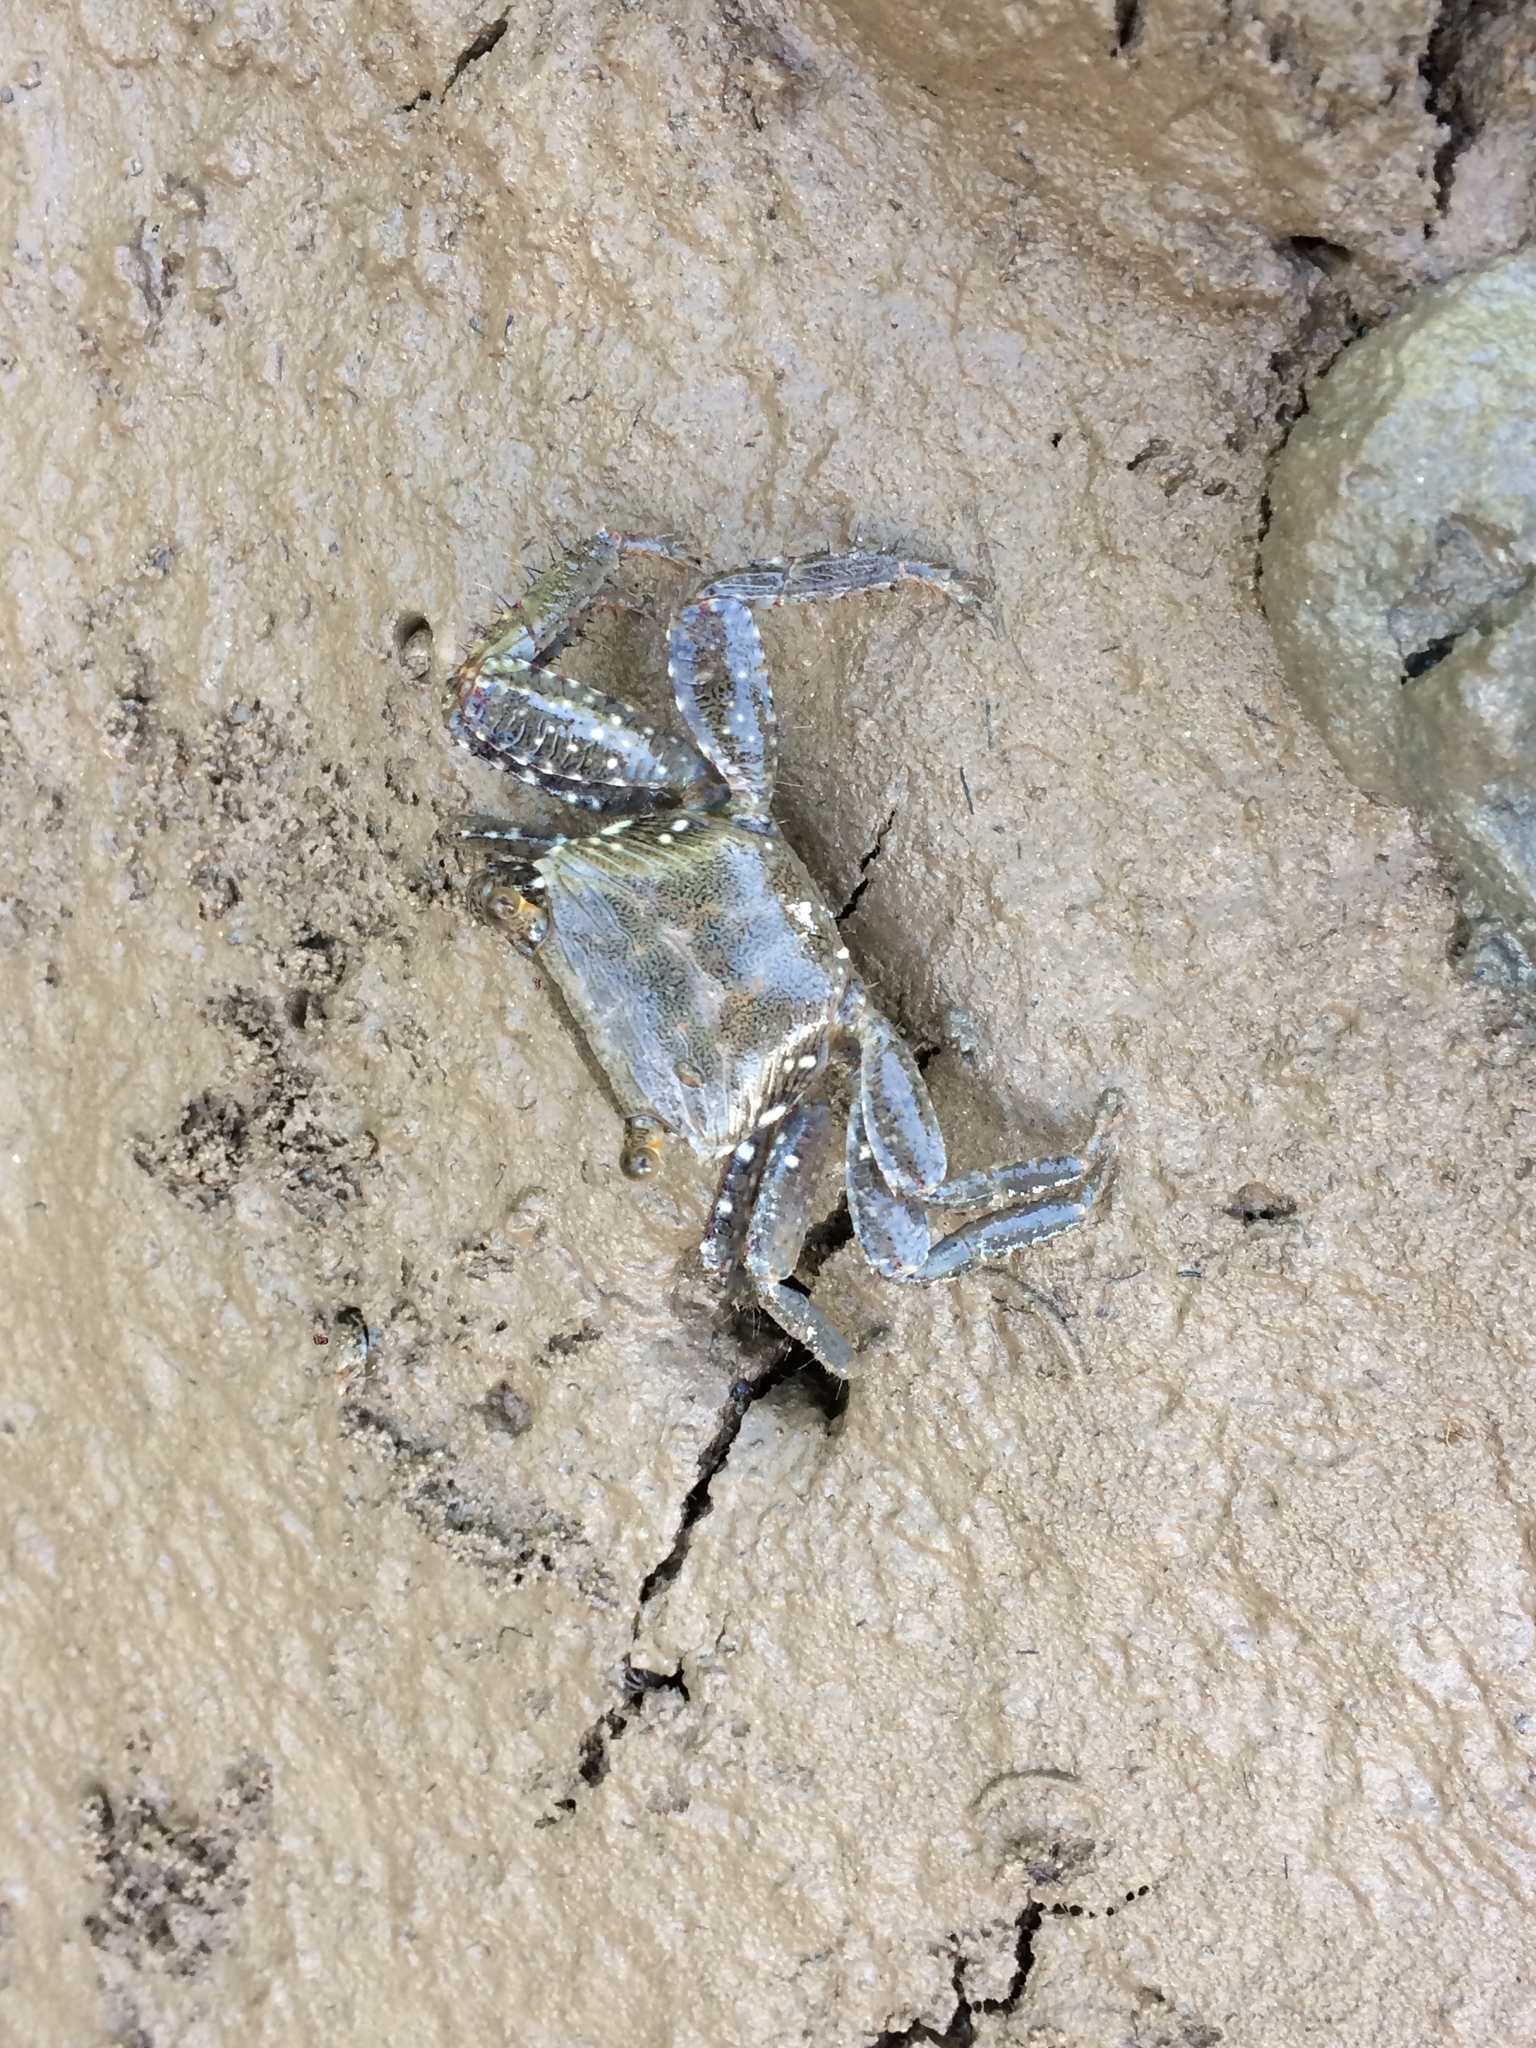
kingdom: Animalia
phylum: Arthropoda
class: Malacostraca
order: Decapoda
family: Grapsidae
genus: Goniopsis
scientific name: Goniopsis cruentata
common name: Mangrove crab
